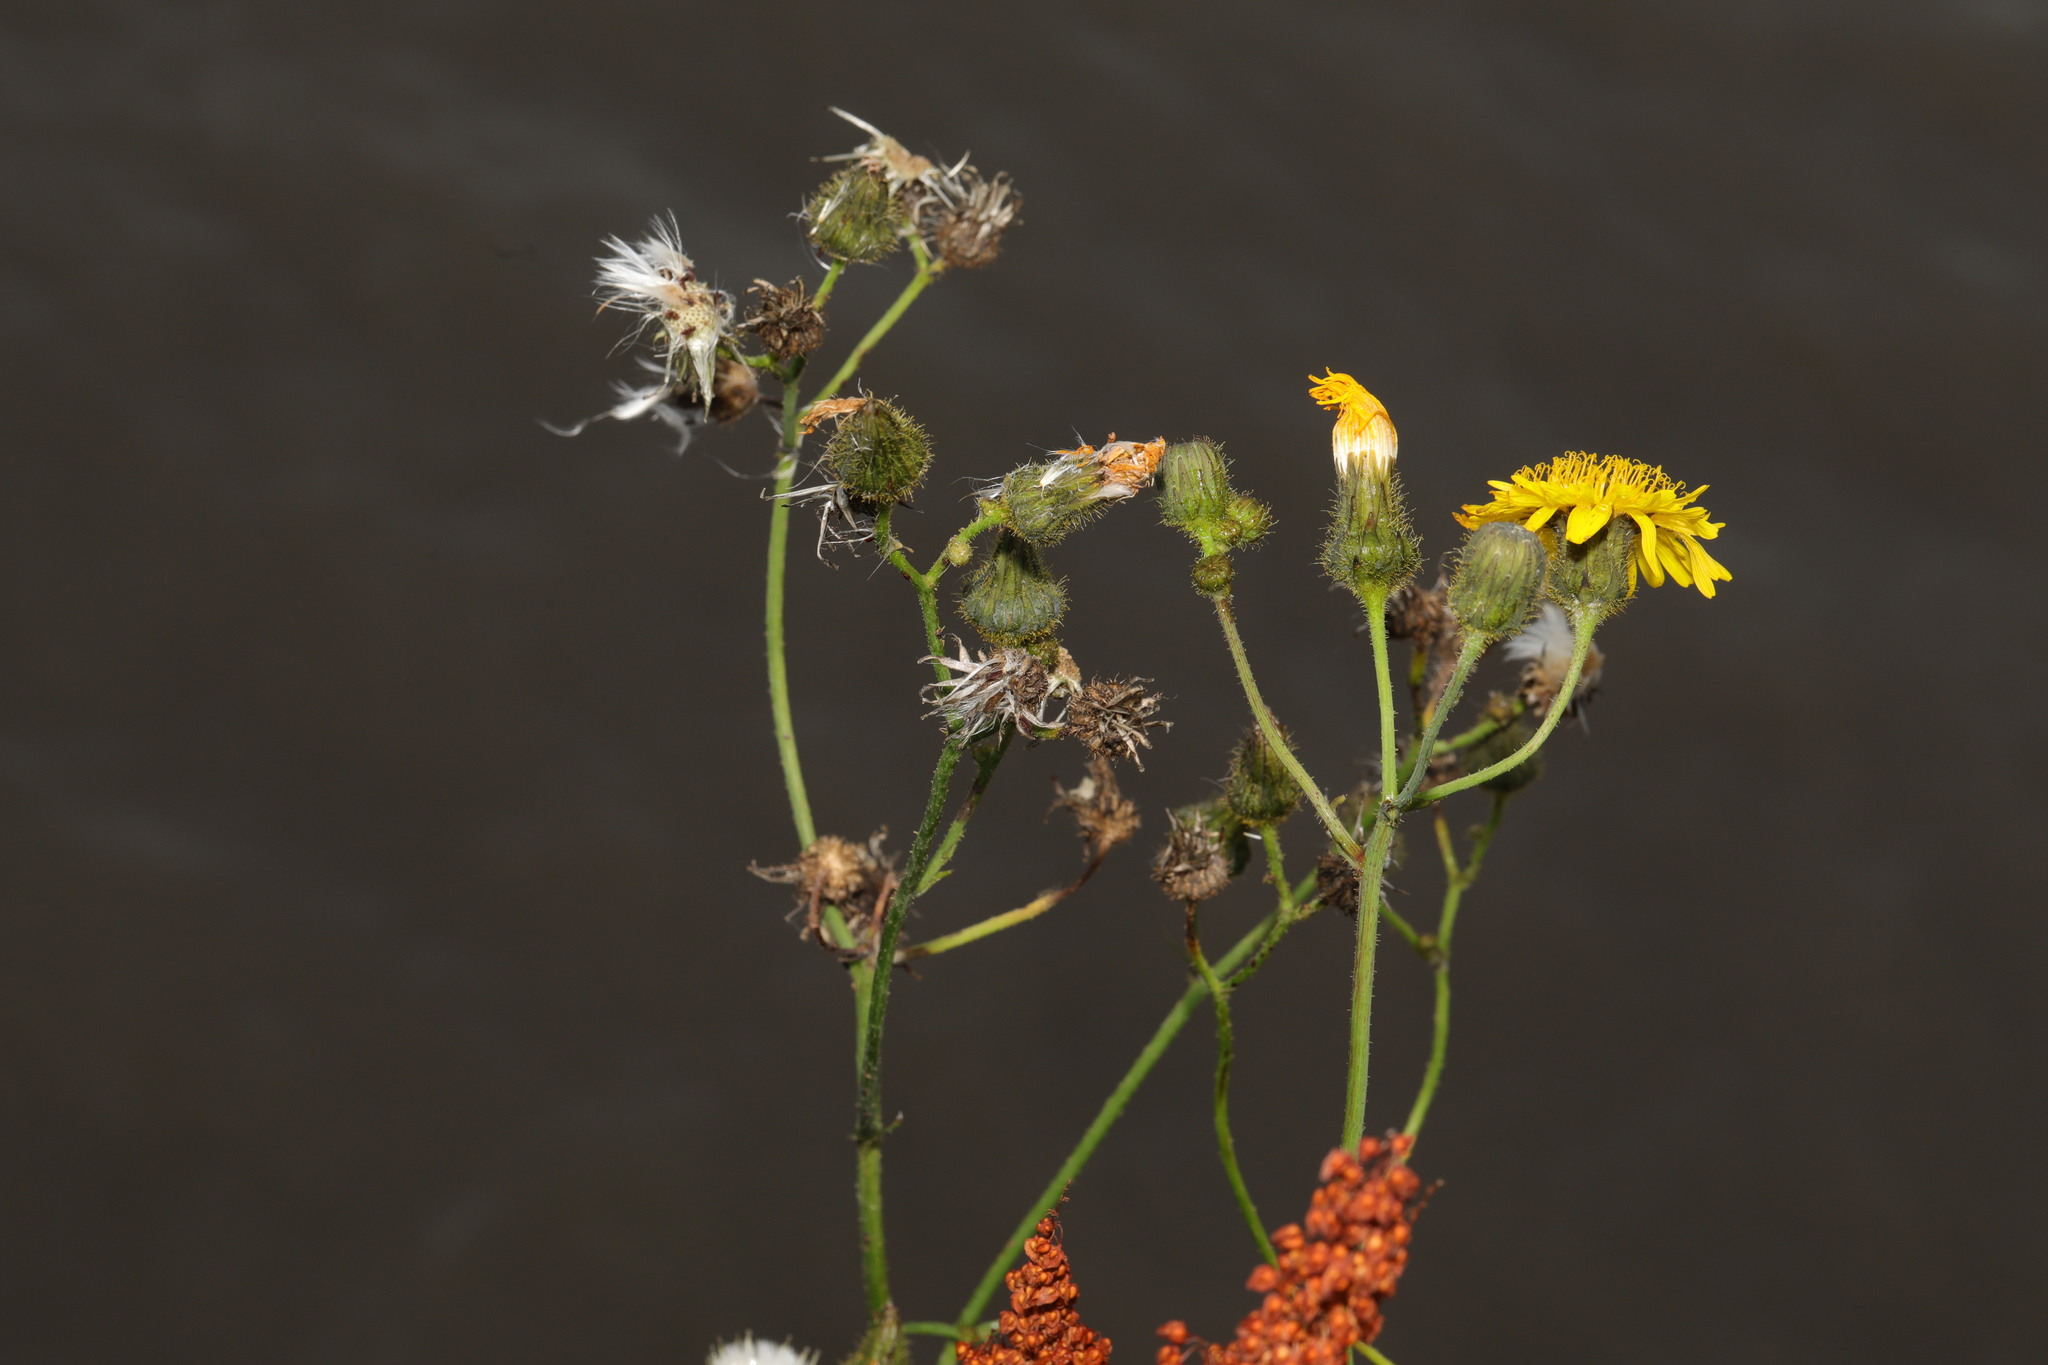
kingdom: Plantae
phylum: Tracheophyta
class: Magnoliopsida
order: Asterales
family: Asteraceae
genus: Sonchus
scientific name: Sonchus arvensis
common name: Perennial sow-thistle
